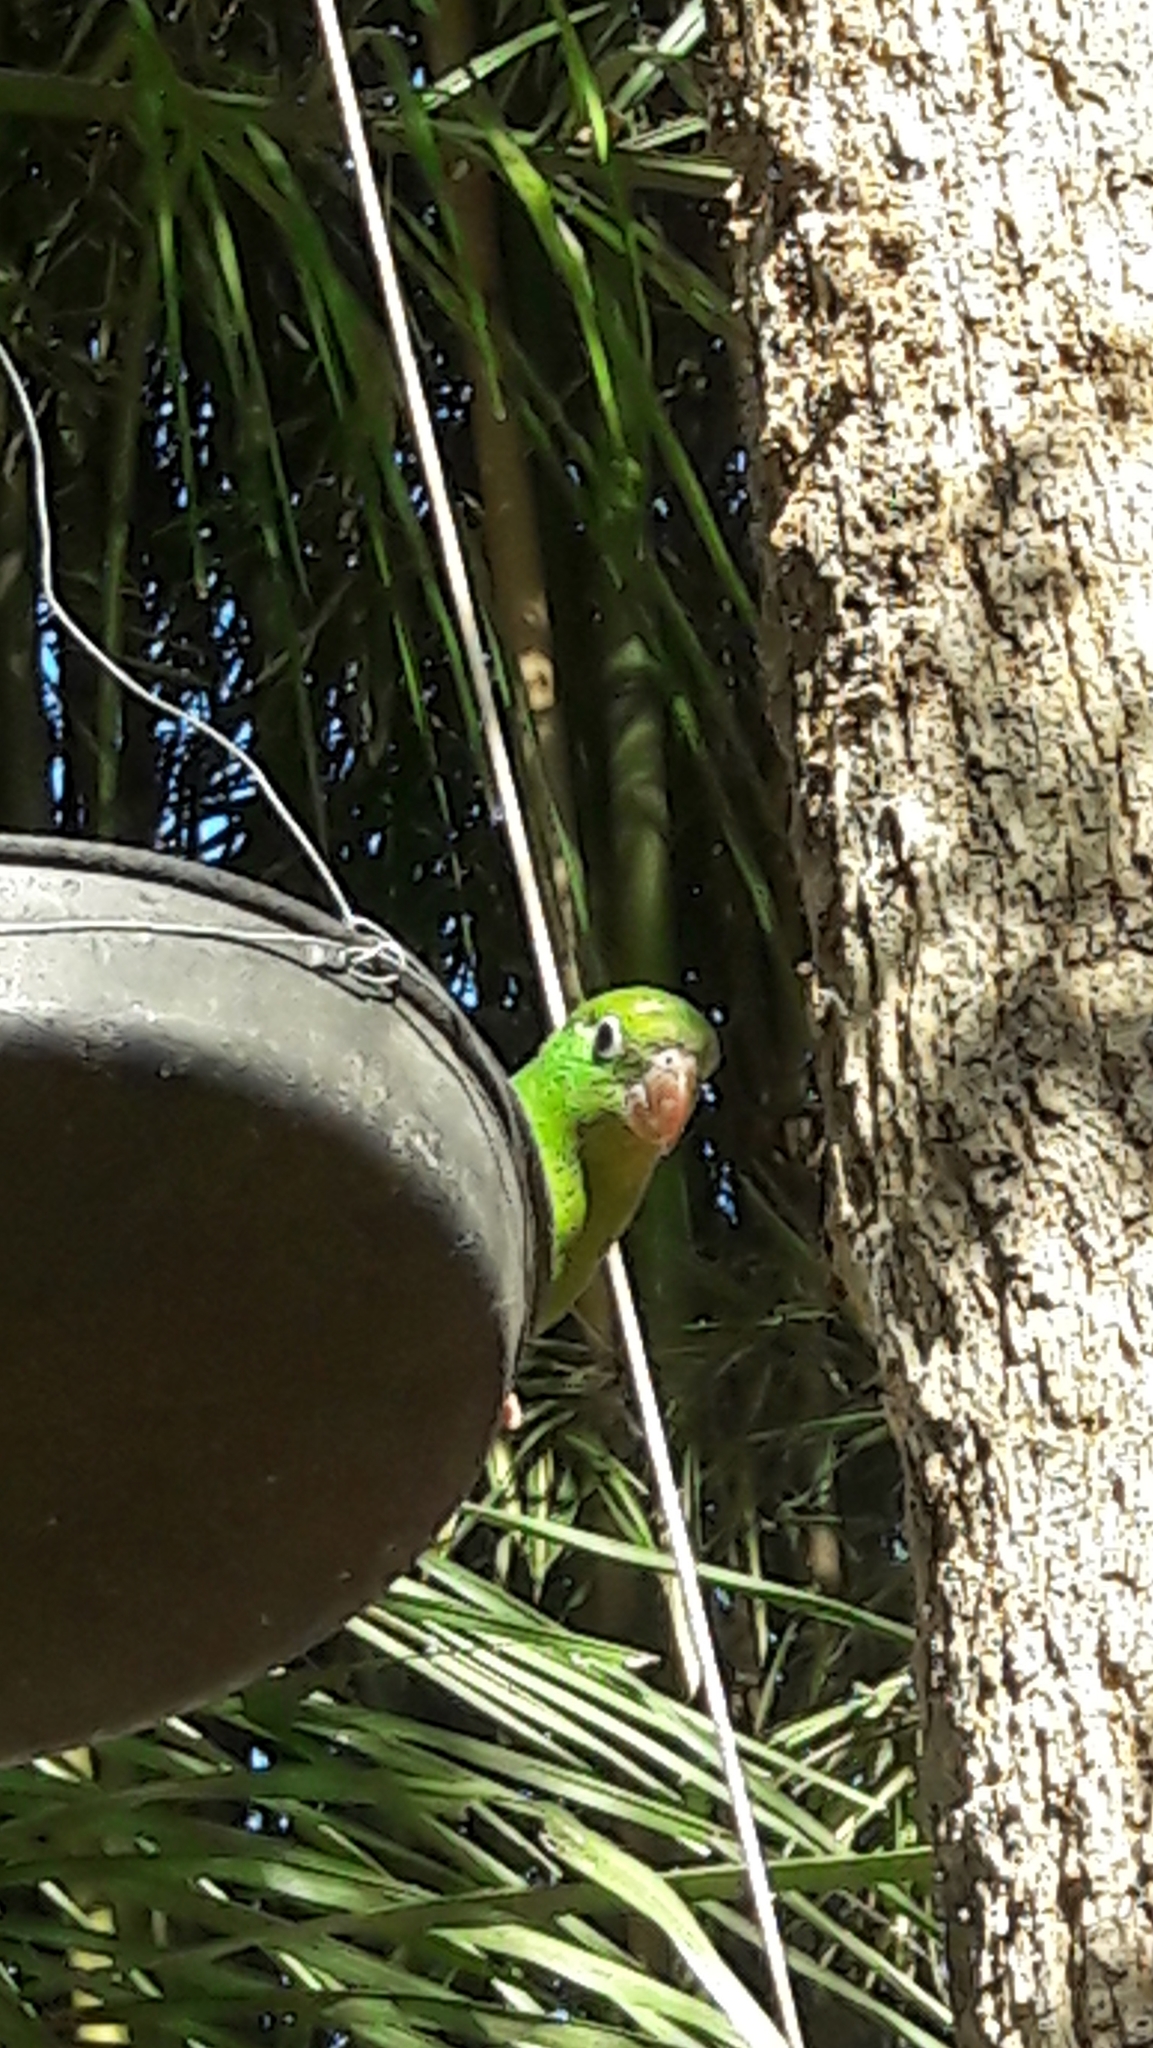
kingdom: Animalia
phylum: Chordata
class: Aves
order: Psittaciformes
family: Psittacidae
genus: Brotogeris
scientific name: Brotogeris chiriri
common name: Yellow-chevroned parakeet
